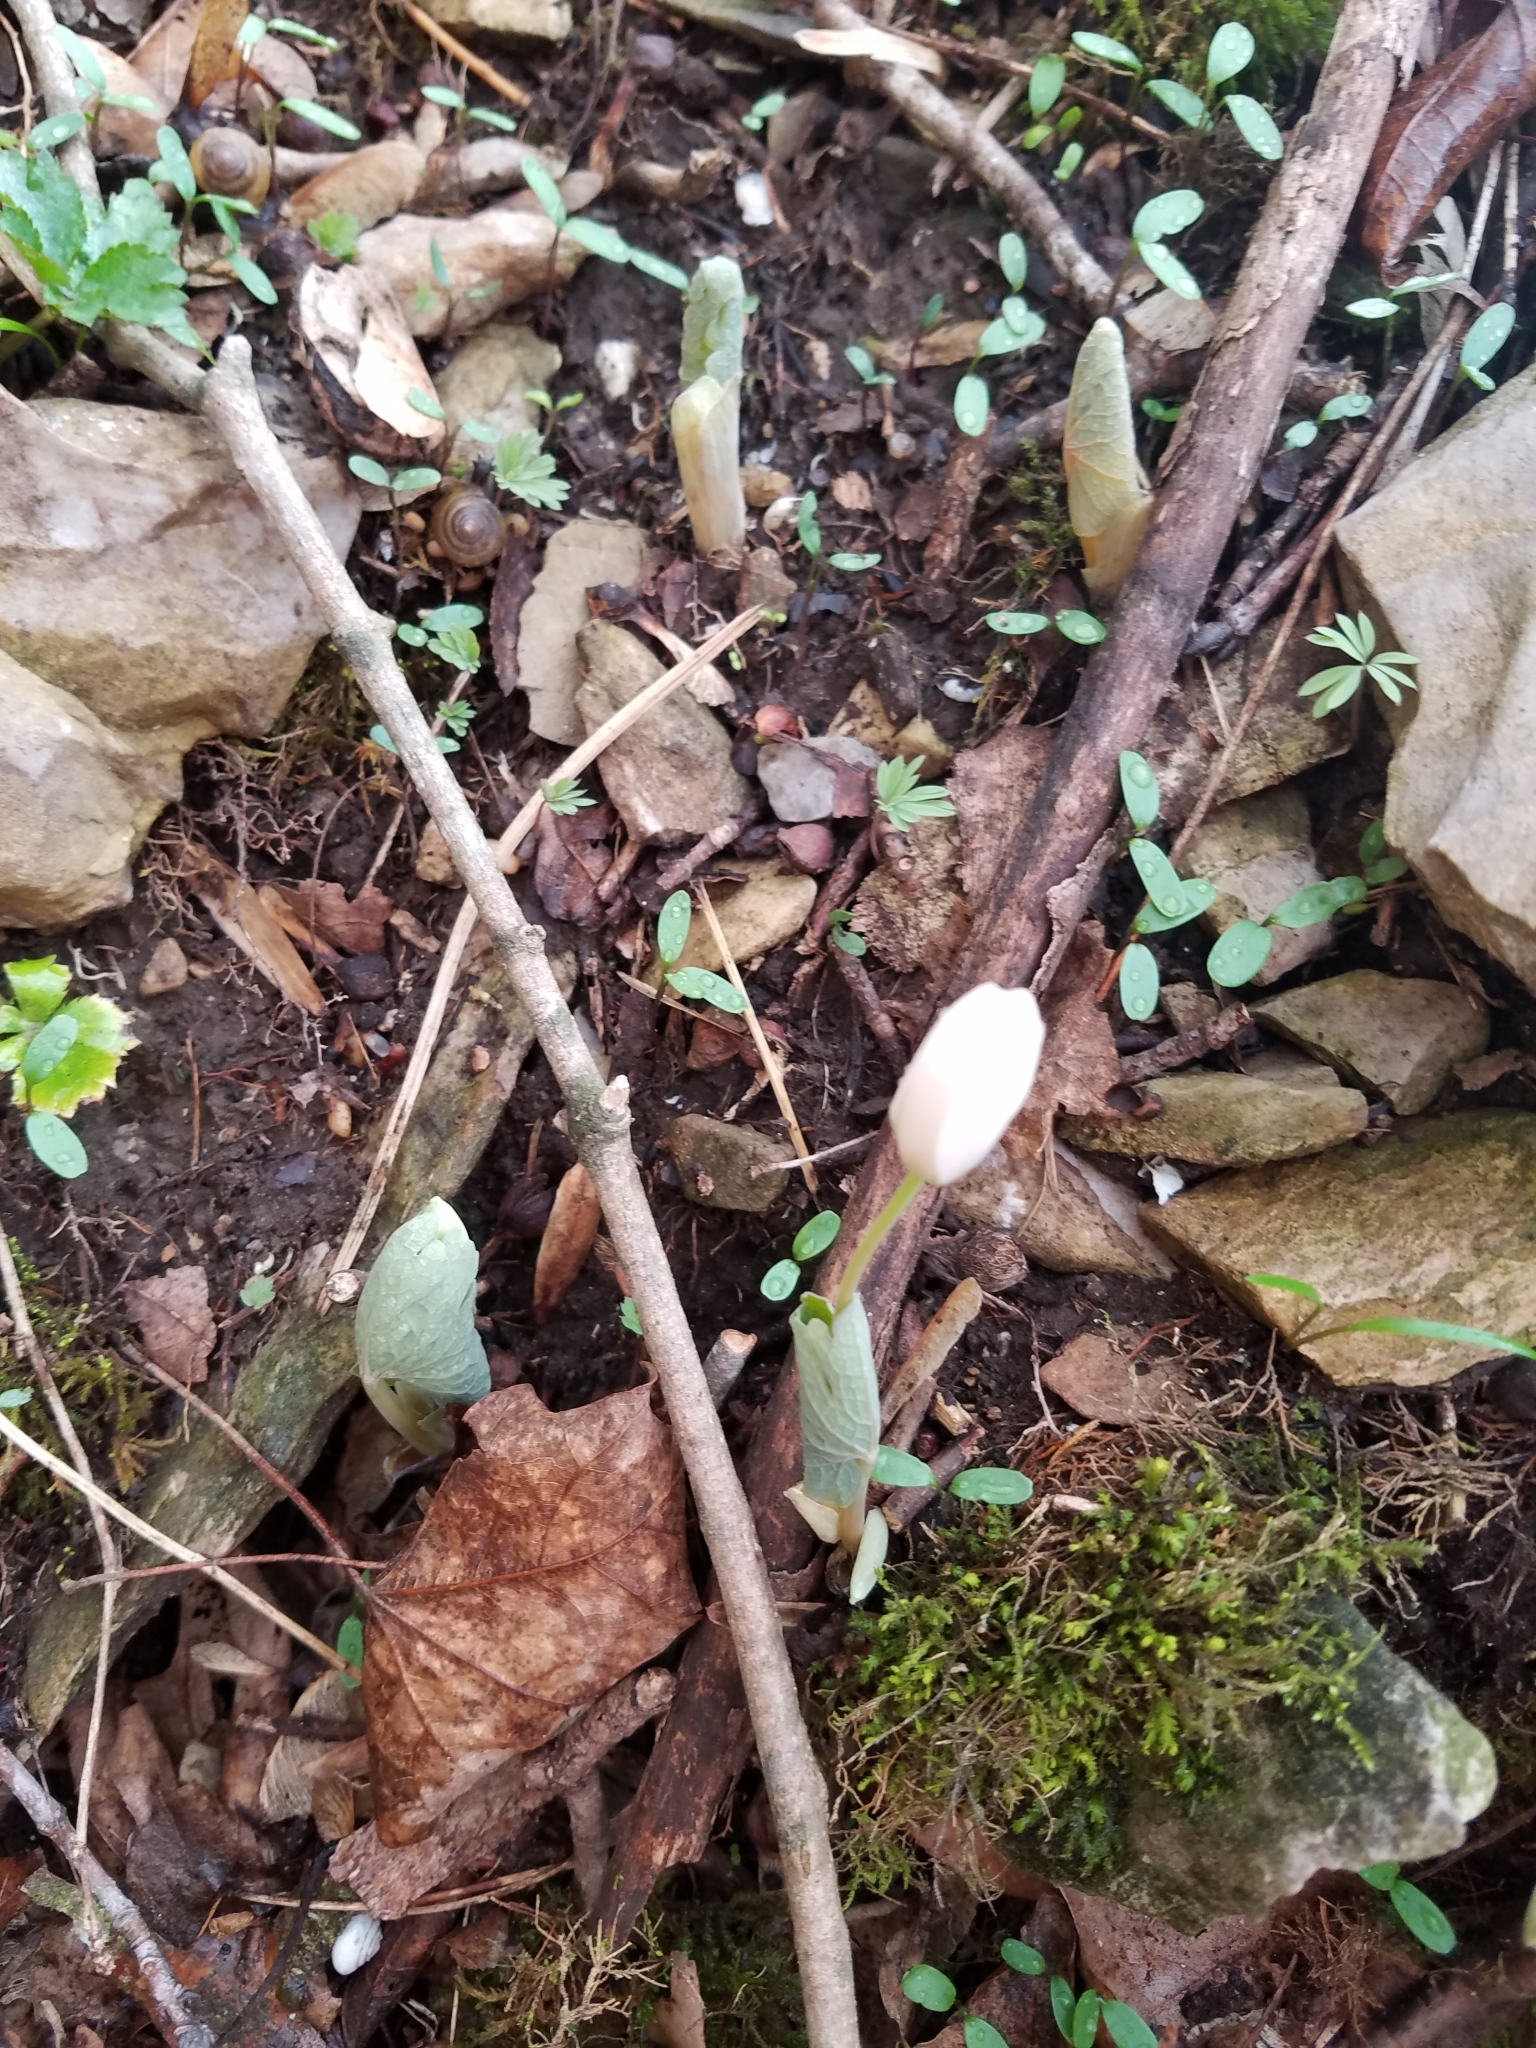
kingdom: Plantae
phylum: Tracheophyta
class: Magnoliopsida
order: Ranunculales
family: Papaveraceae
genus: Sanguinaria
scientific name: Sanguinaria canadensis
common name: Bloodroot
